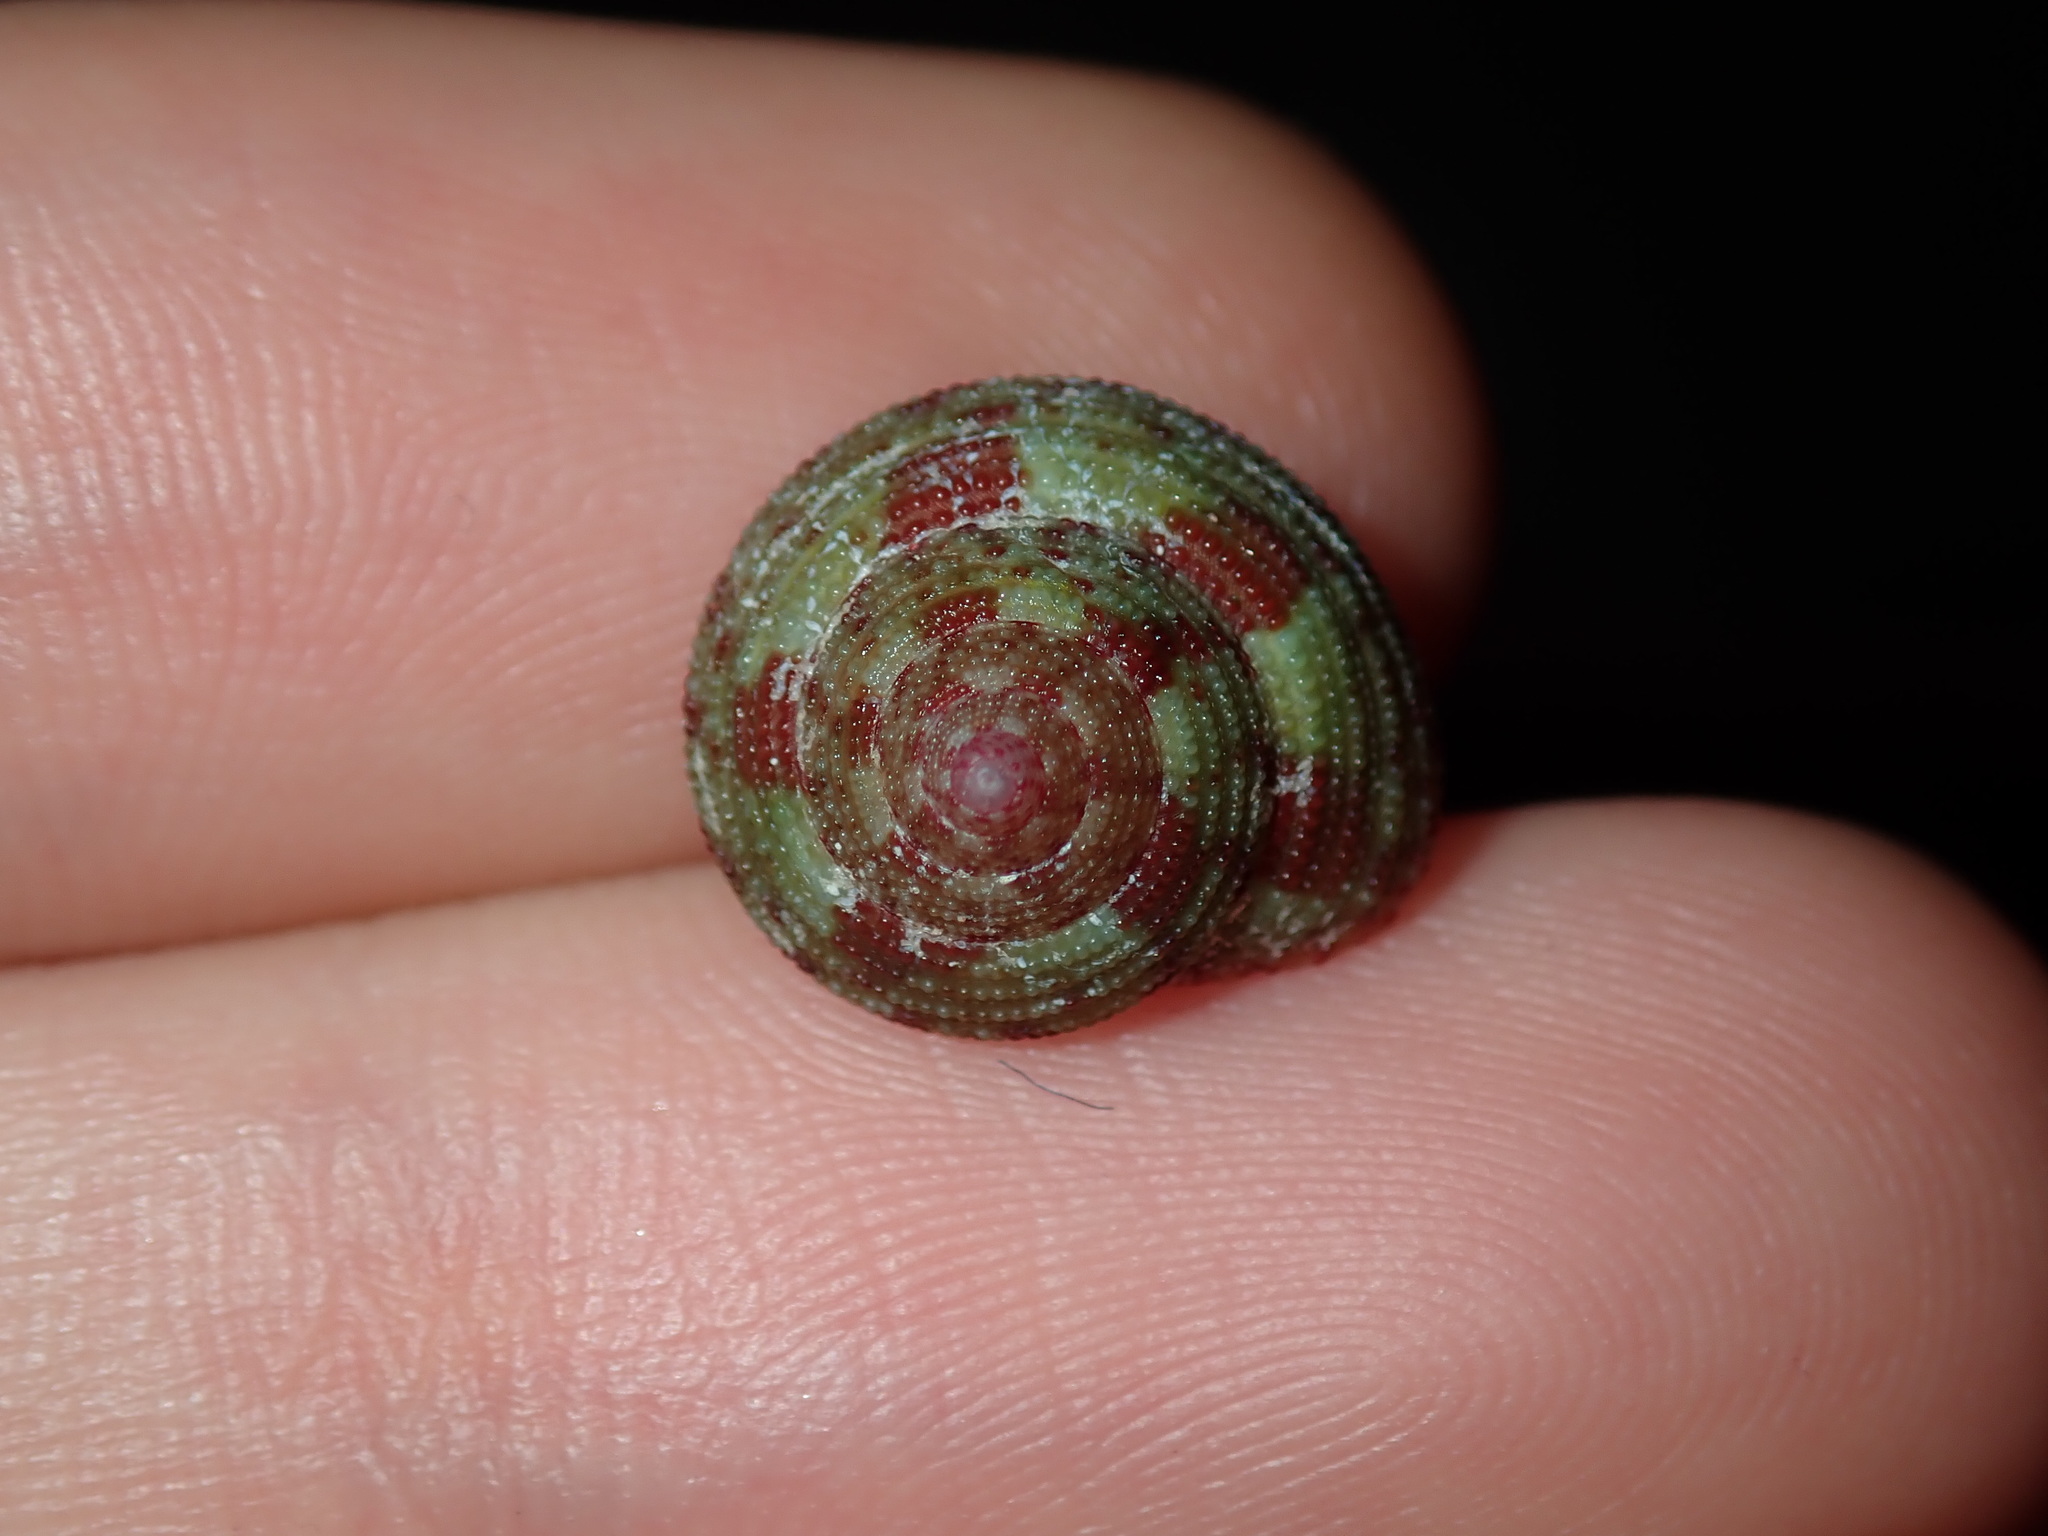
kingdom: Animalia
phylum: Mollusca
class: Gastropoda
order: Trochida
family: Trochidae
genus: Clanculus
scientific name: Clanculus clangulus
